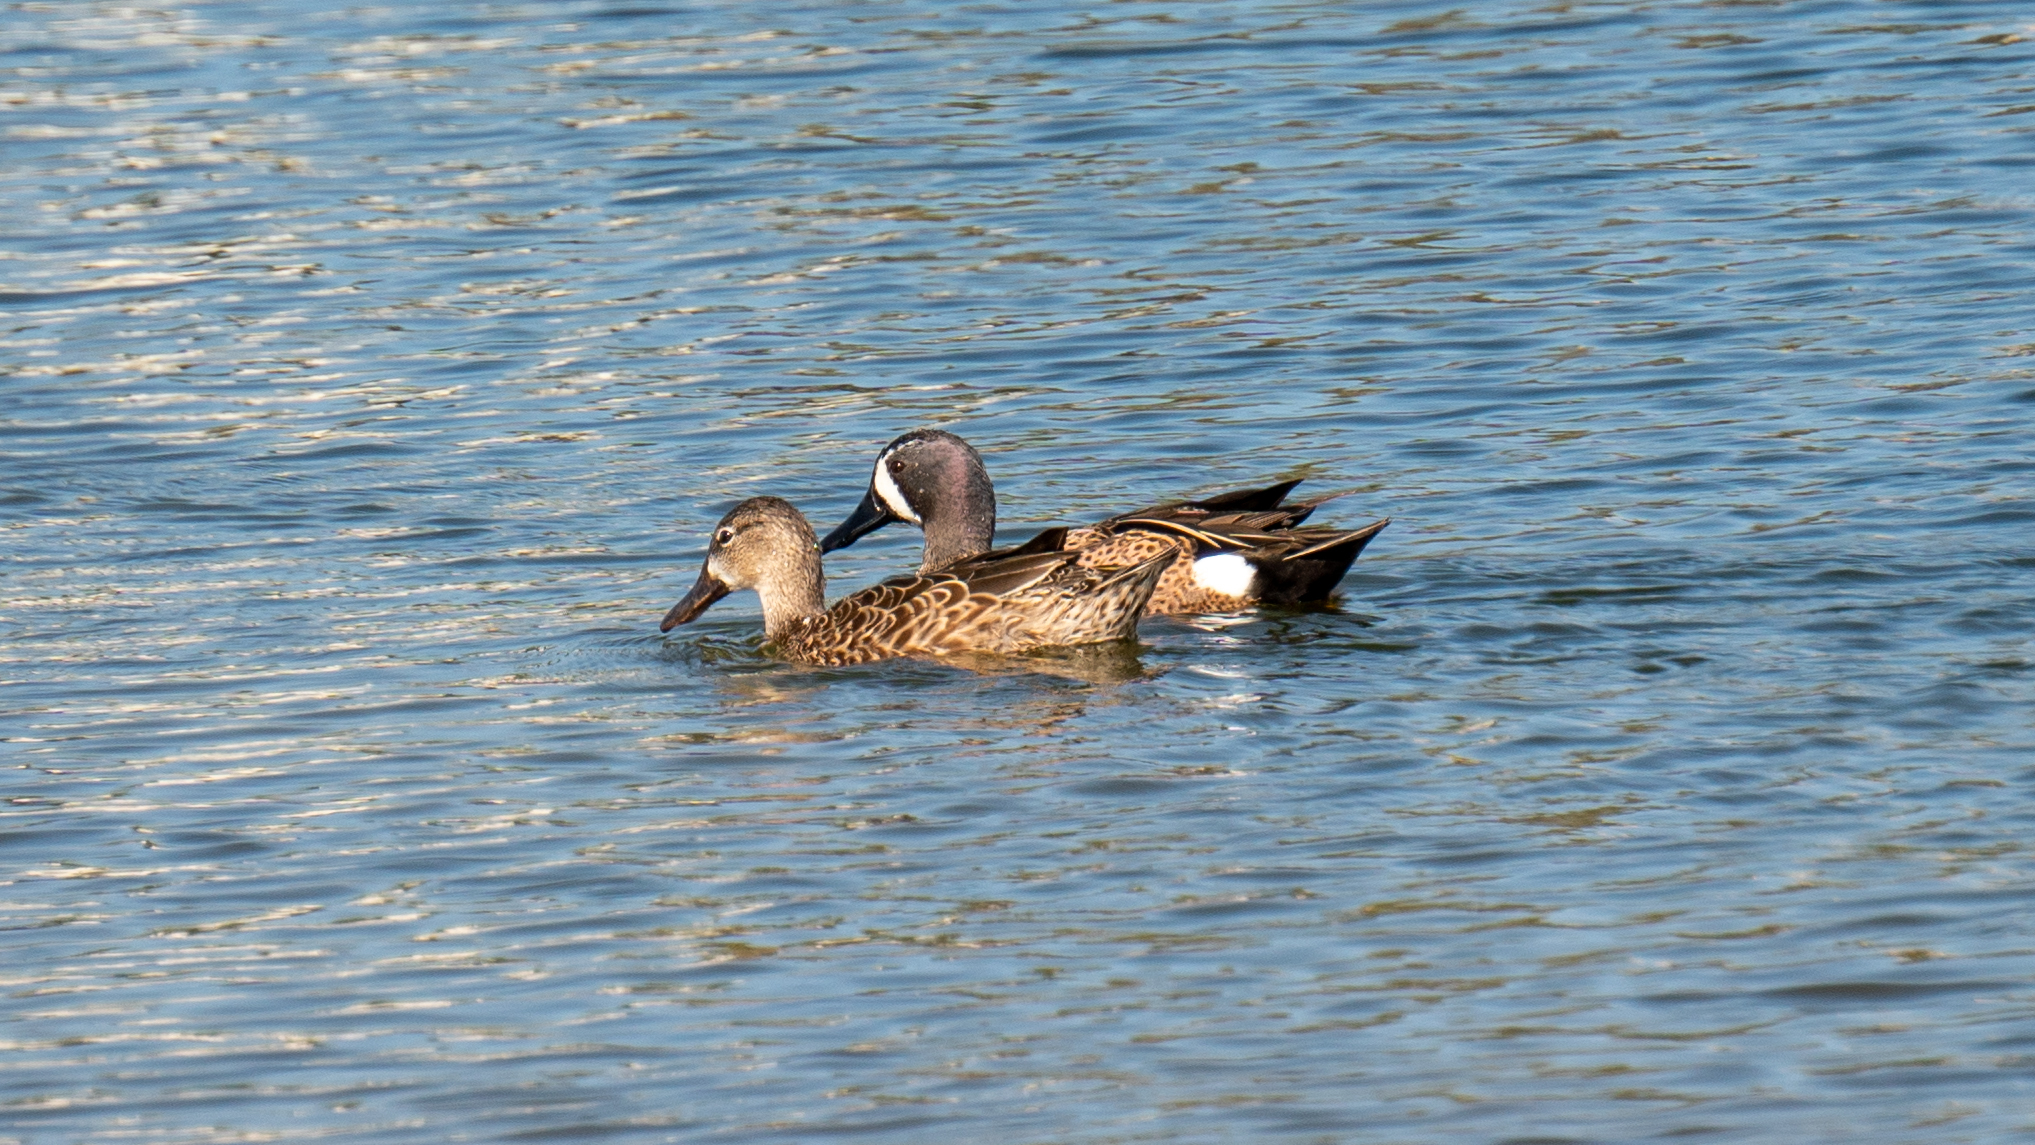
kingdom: Animalia
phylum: Chordata
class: Aves
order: Anseriformes
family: Anatidae
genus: Spatula
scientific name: Spatula discors
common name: Blue-winged teal
